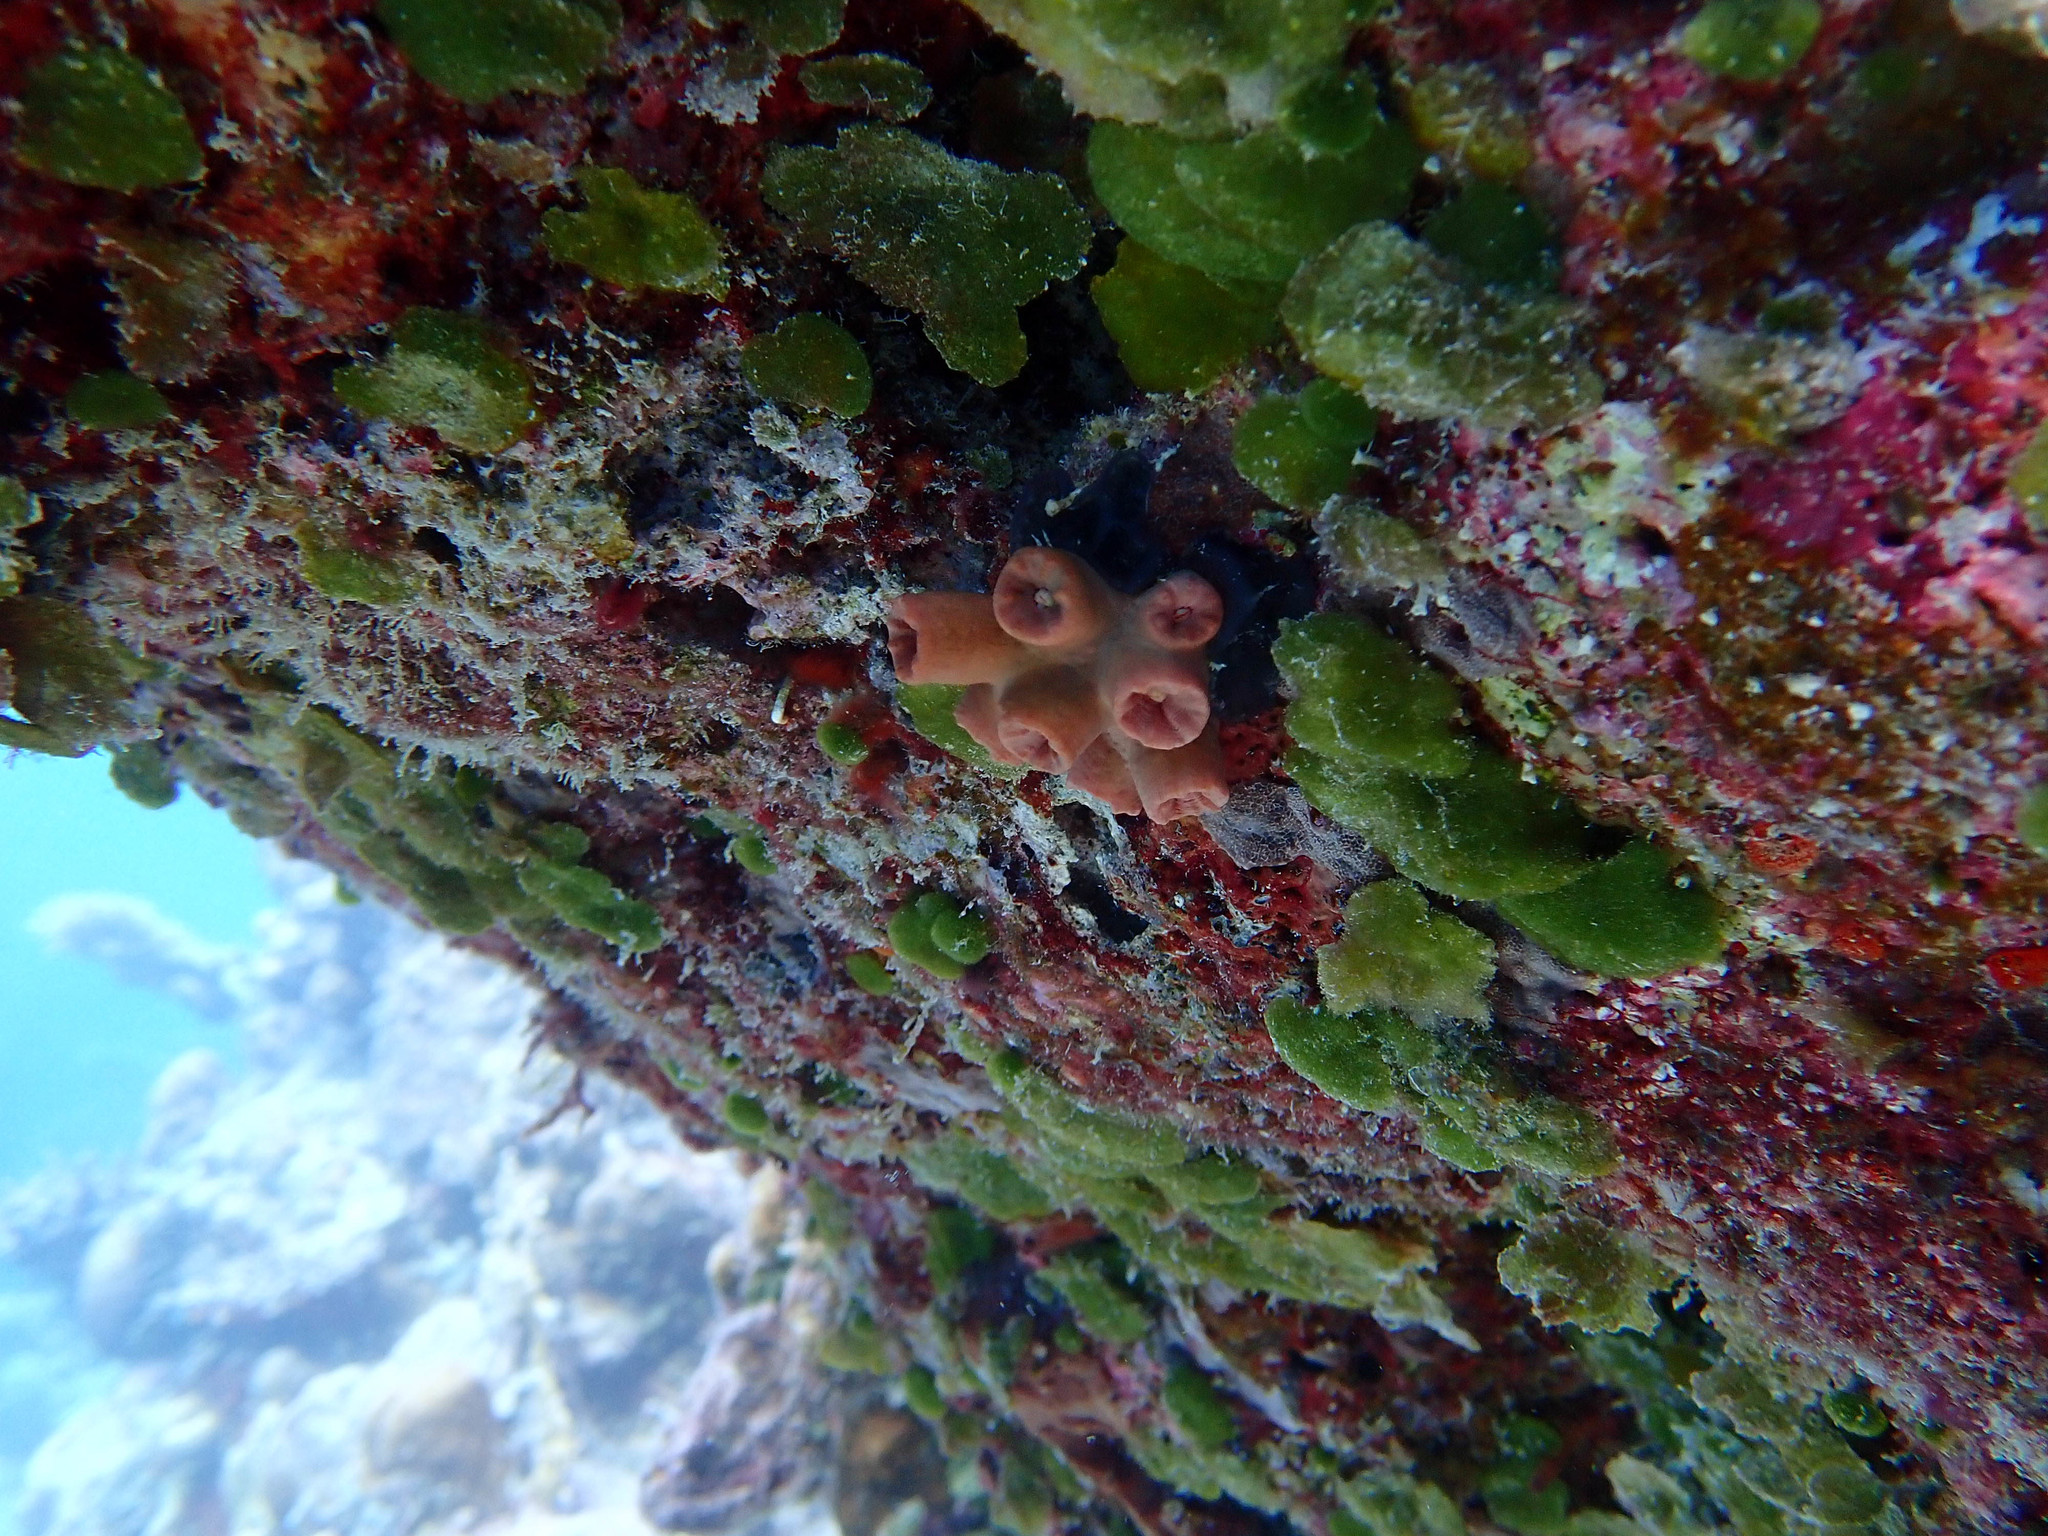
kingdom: Animalia
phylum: Cnidaria
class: Anthozoa
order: Scleractinia
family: Dendrophylliidae
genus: Tubastraea
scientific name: Tubastraea coccinea
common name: Orange cup coral
